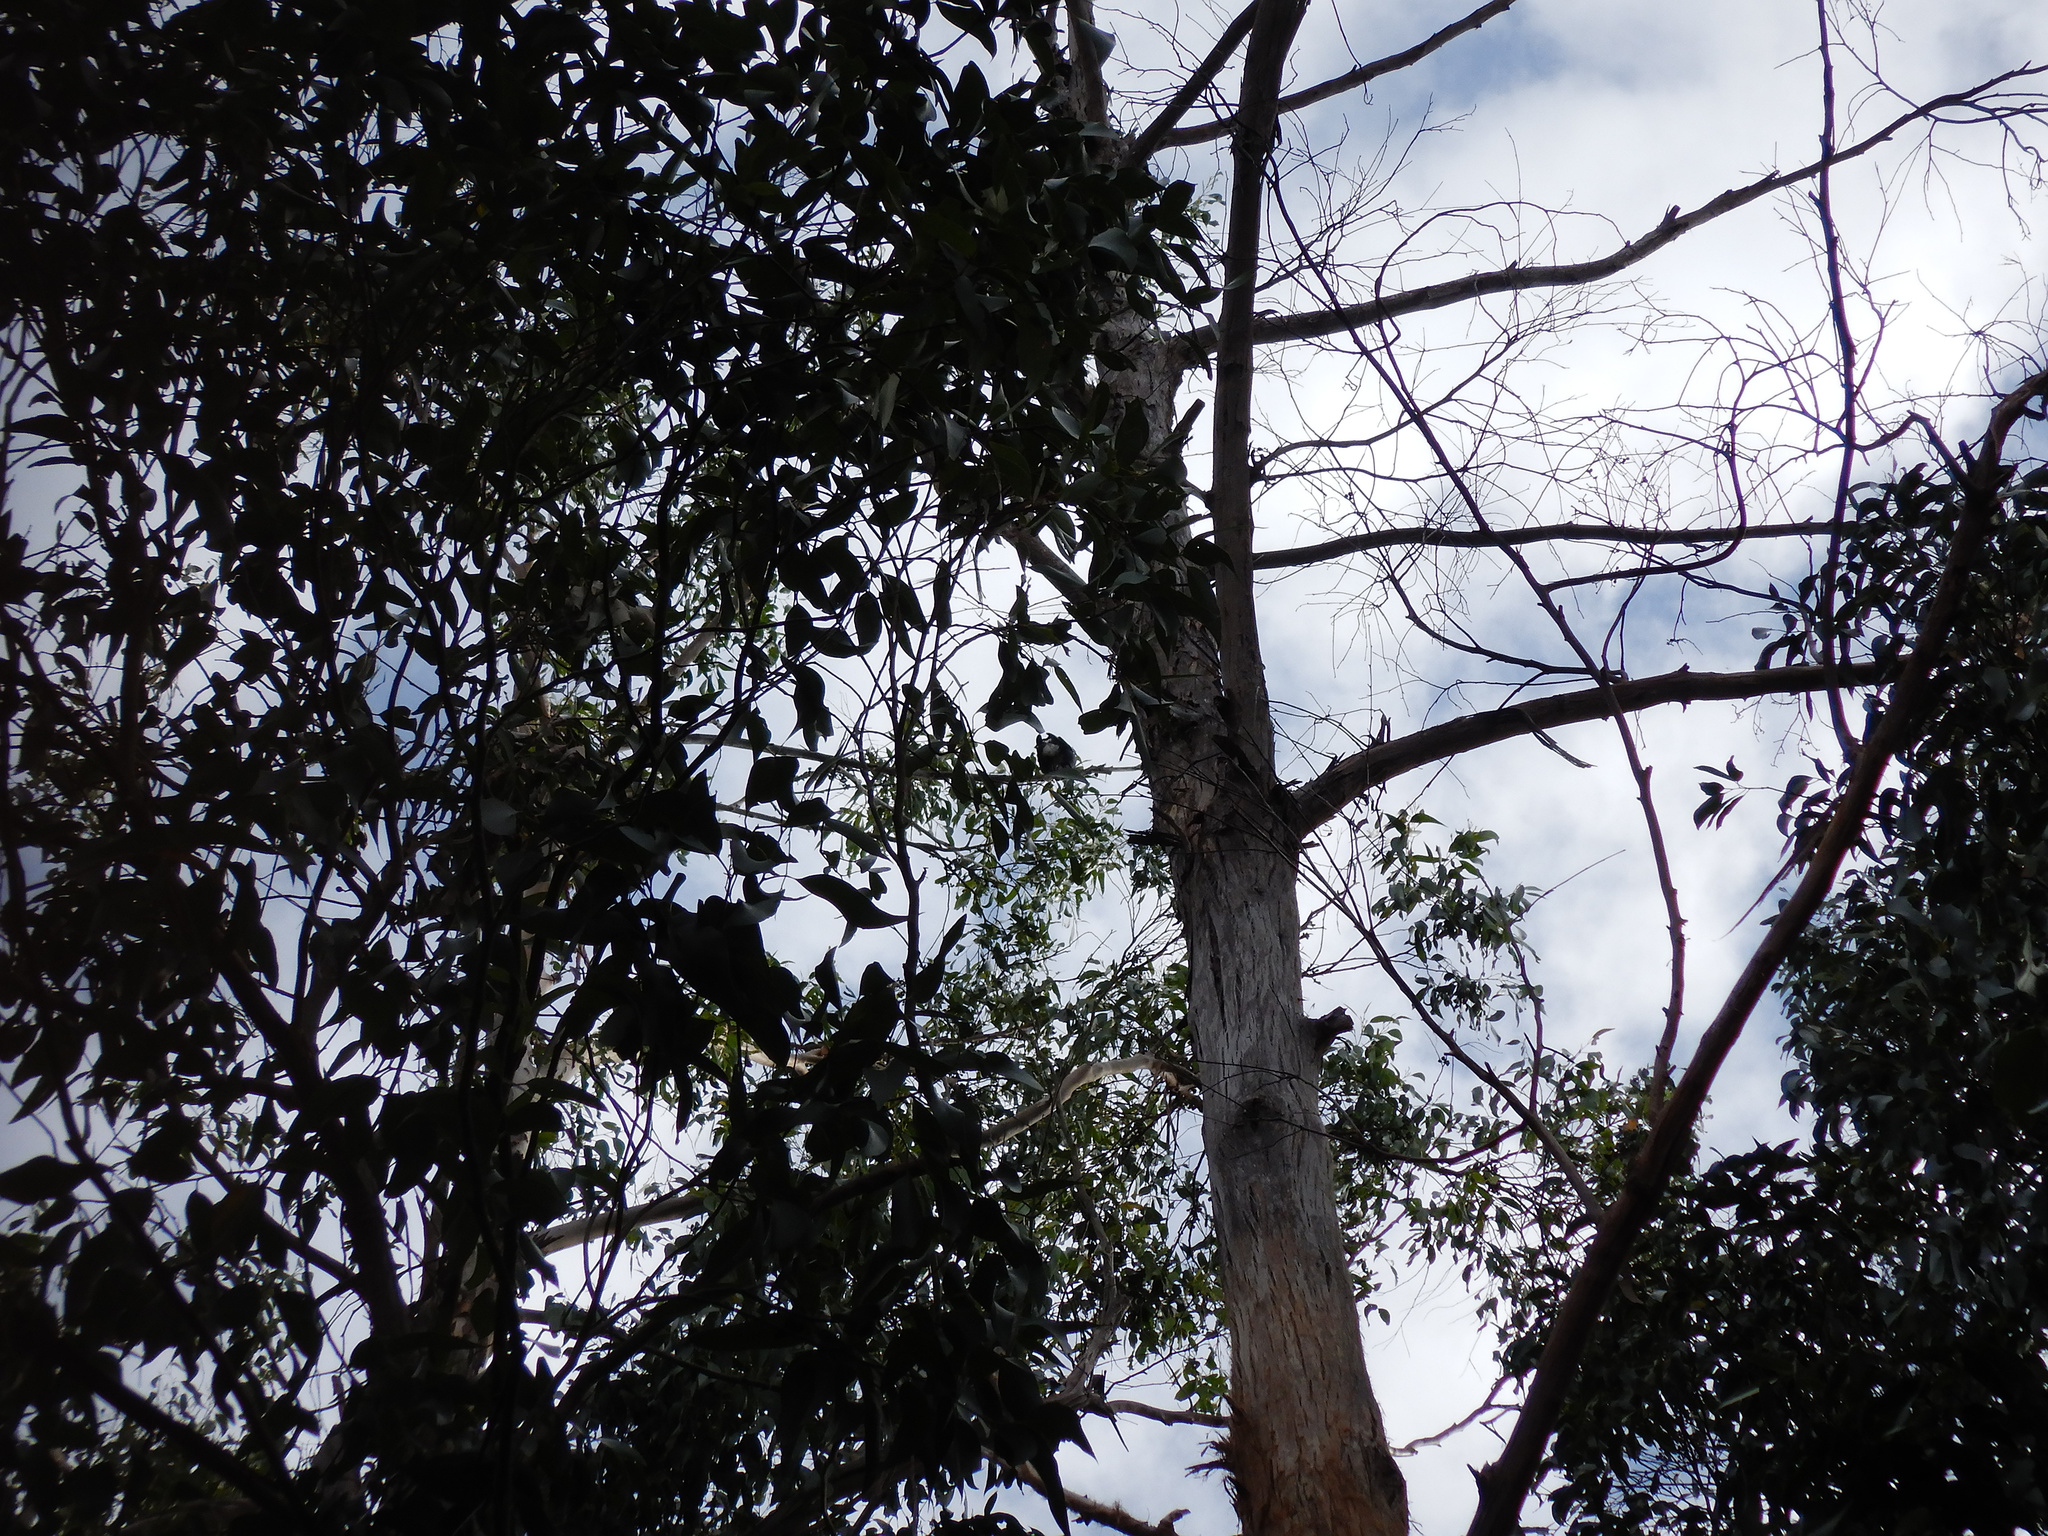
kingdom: Animalia
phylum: Chordata
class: Aves
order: Passeriformes
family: Cracticidae
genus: Gymnorhina
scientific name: Gymnorhina tibicen
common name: Australian magpie
